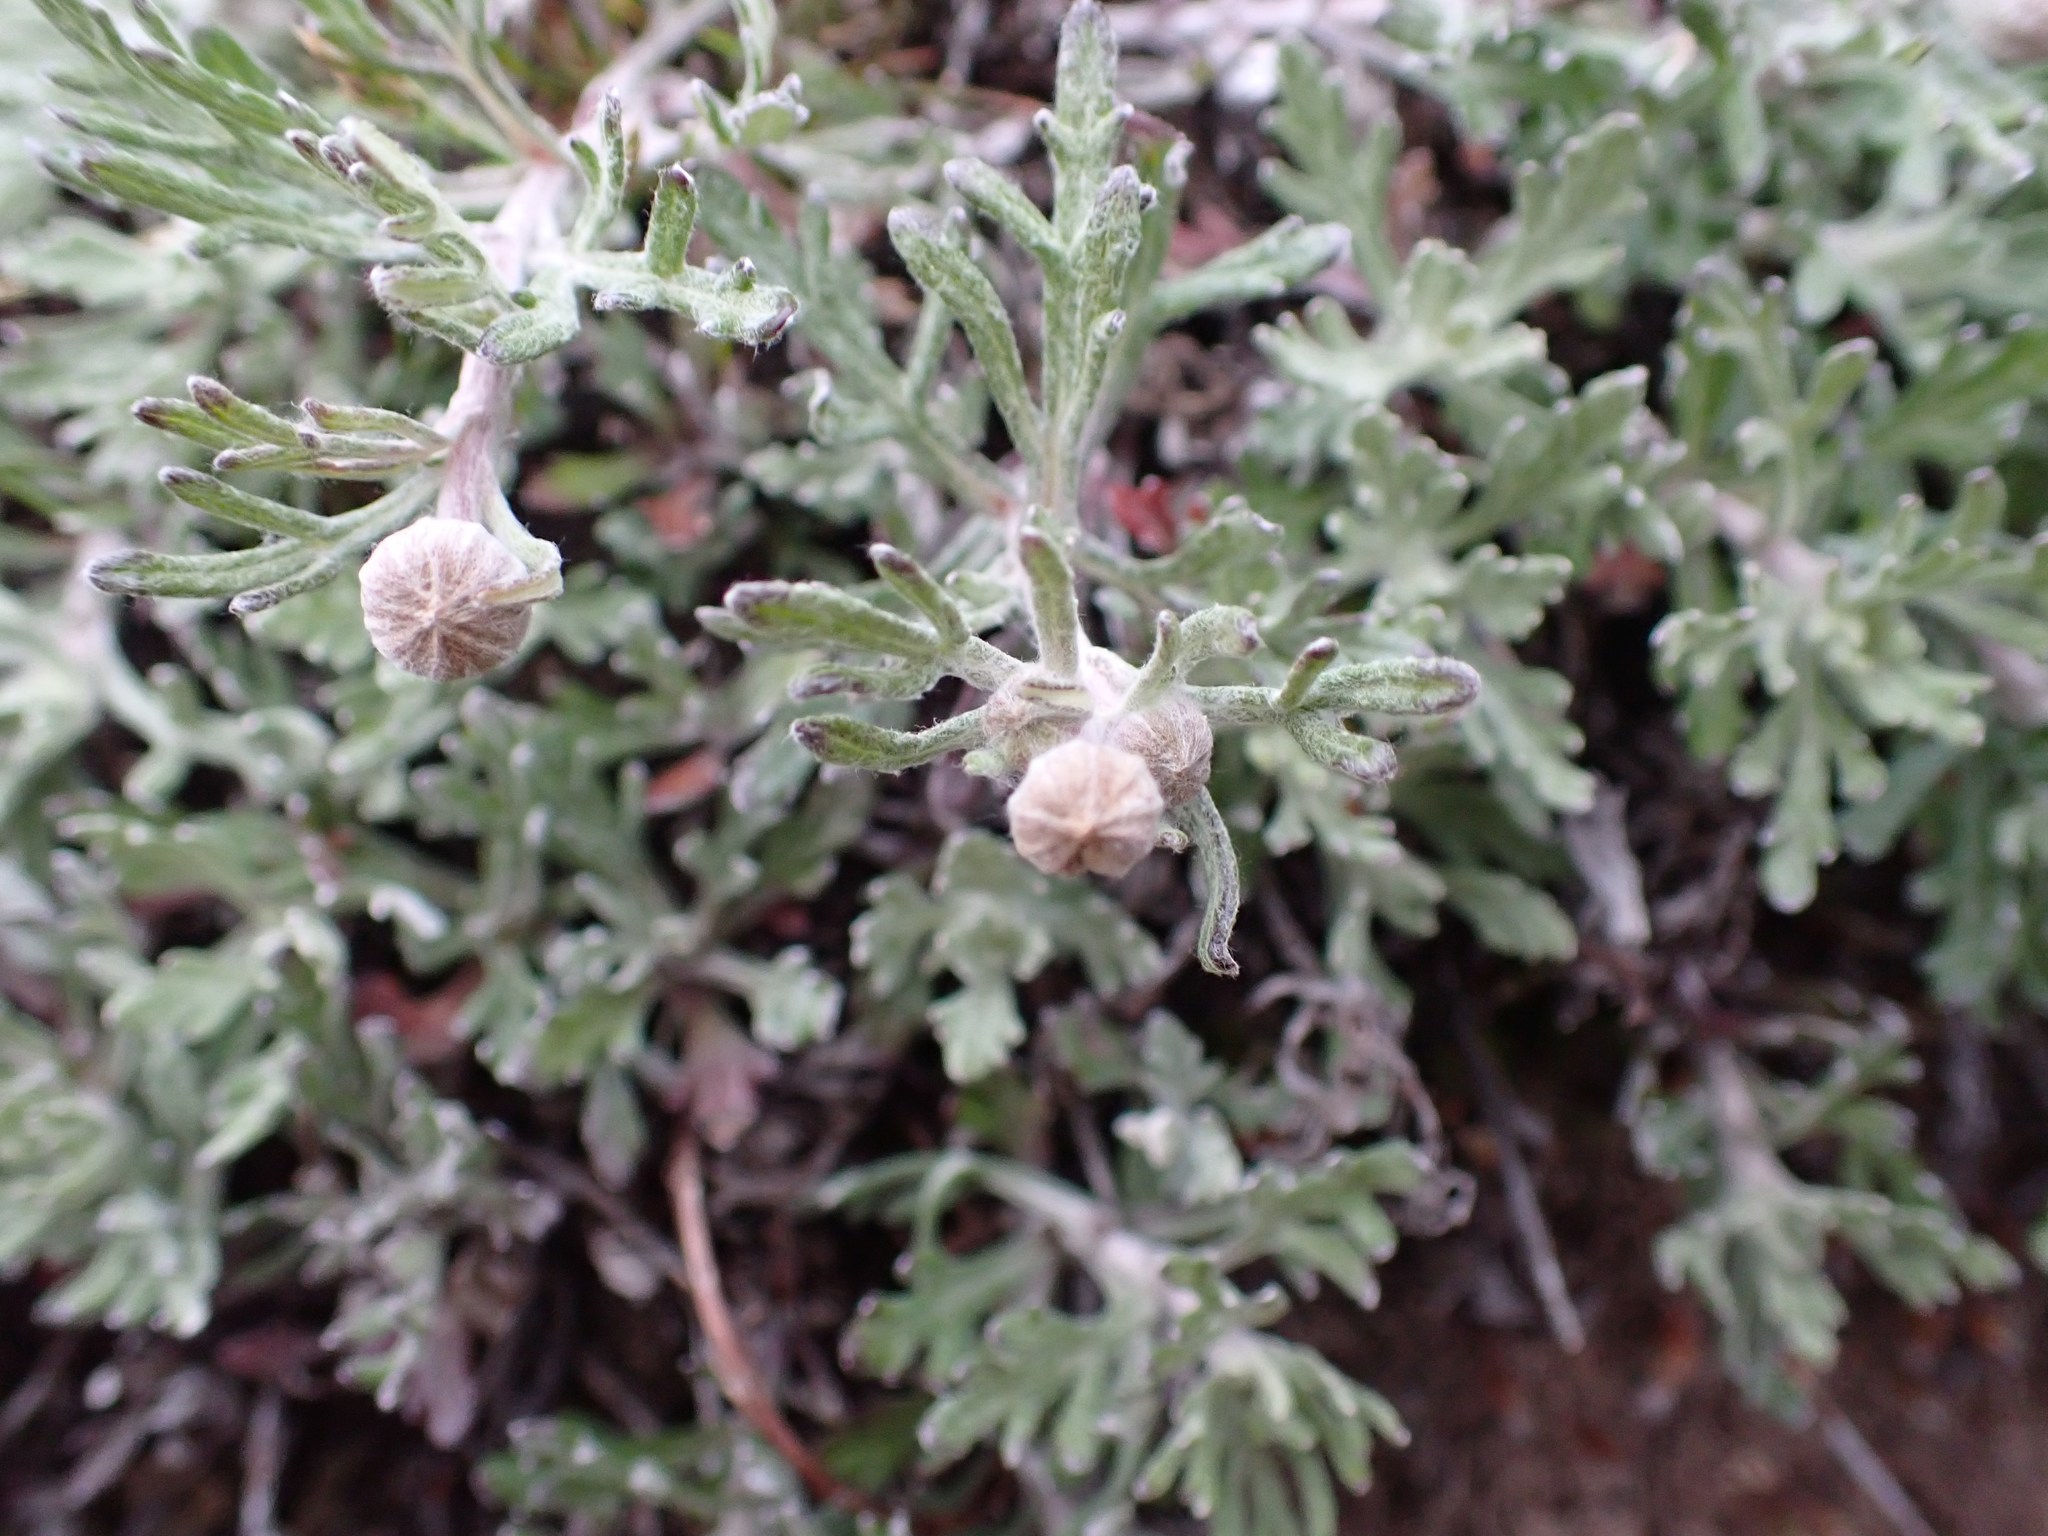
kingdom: Plantae
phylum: Tracheophyta
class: Magnoliopsida
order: Asterales
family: Asteraceae
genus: Eriophyllum
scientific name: Eriophyllum lanatum
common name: Common woolly-sunflower
